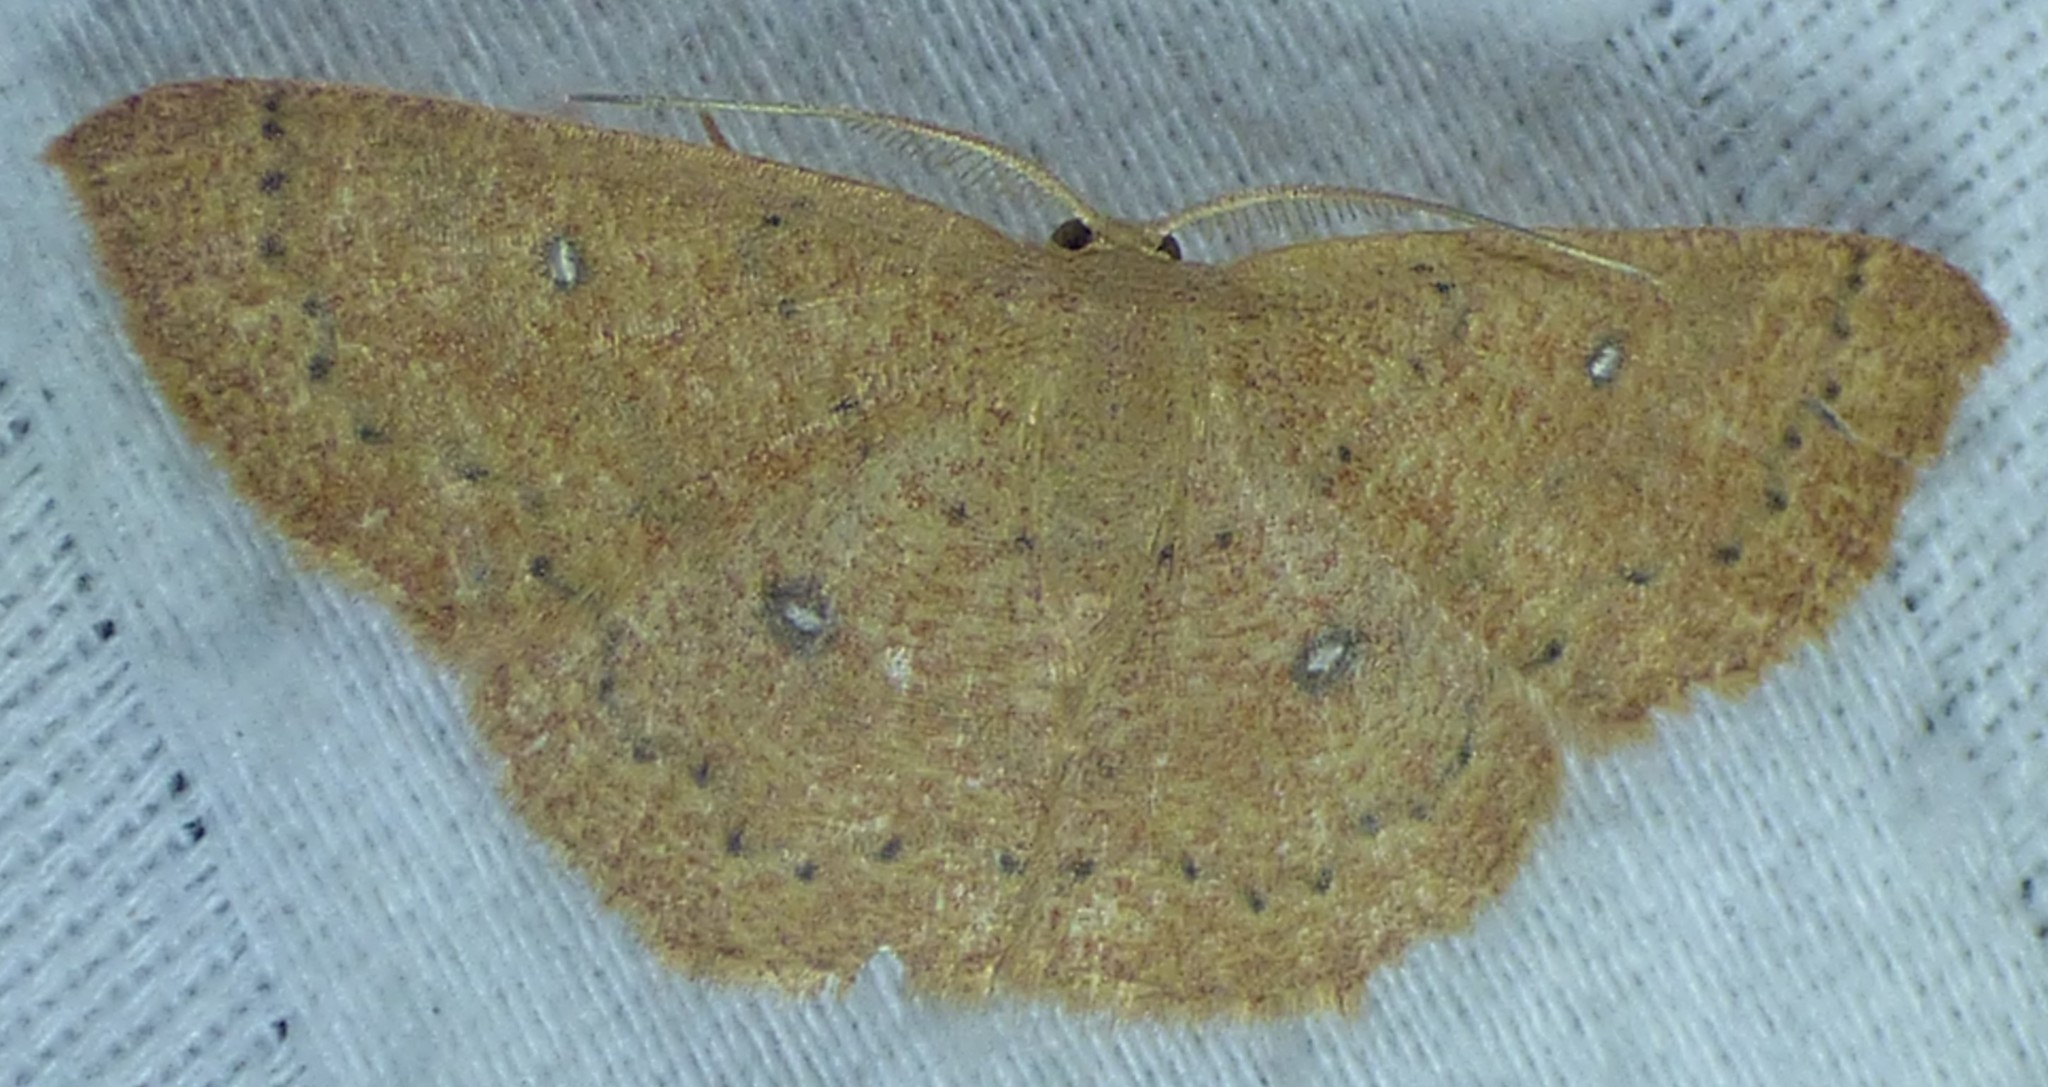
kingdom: Animalia
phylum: Arthropoda
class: Insecta
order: Lepidoptera
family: Geometridae
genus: Cyclophora
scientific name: Cyclophora packardi
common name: Packard's wave
